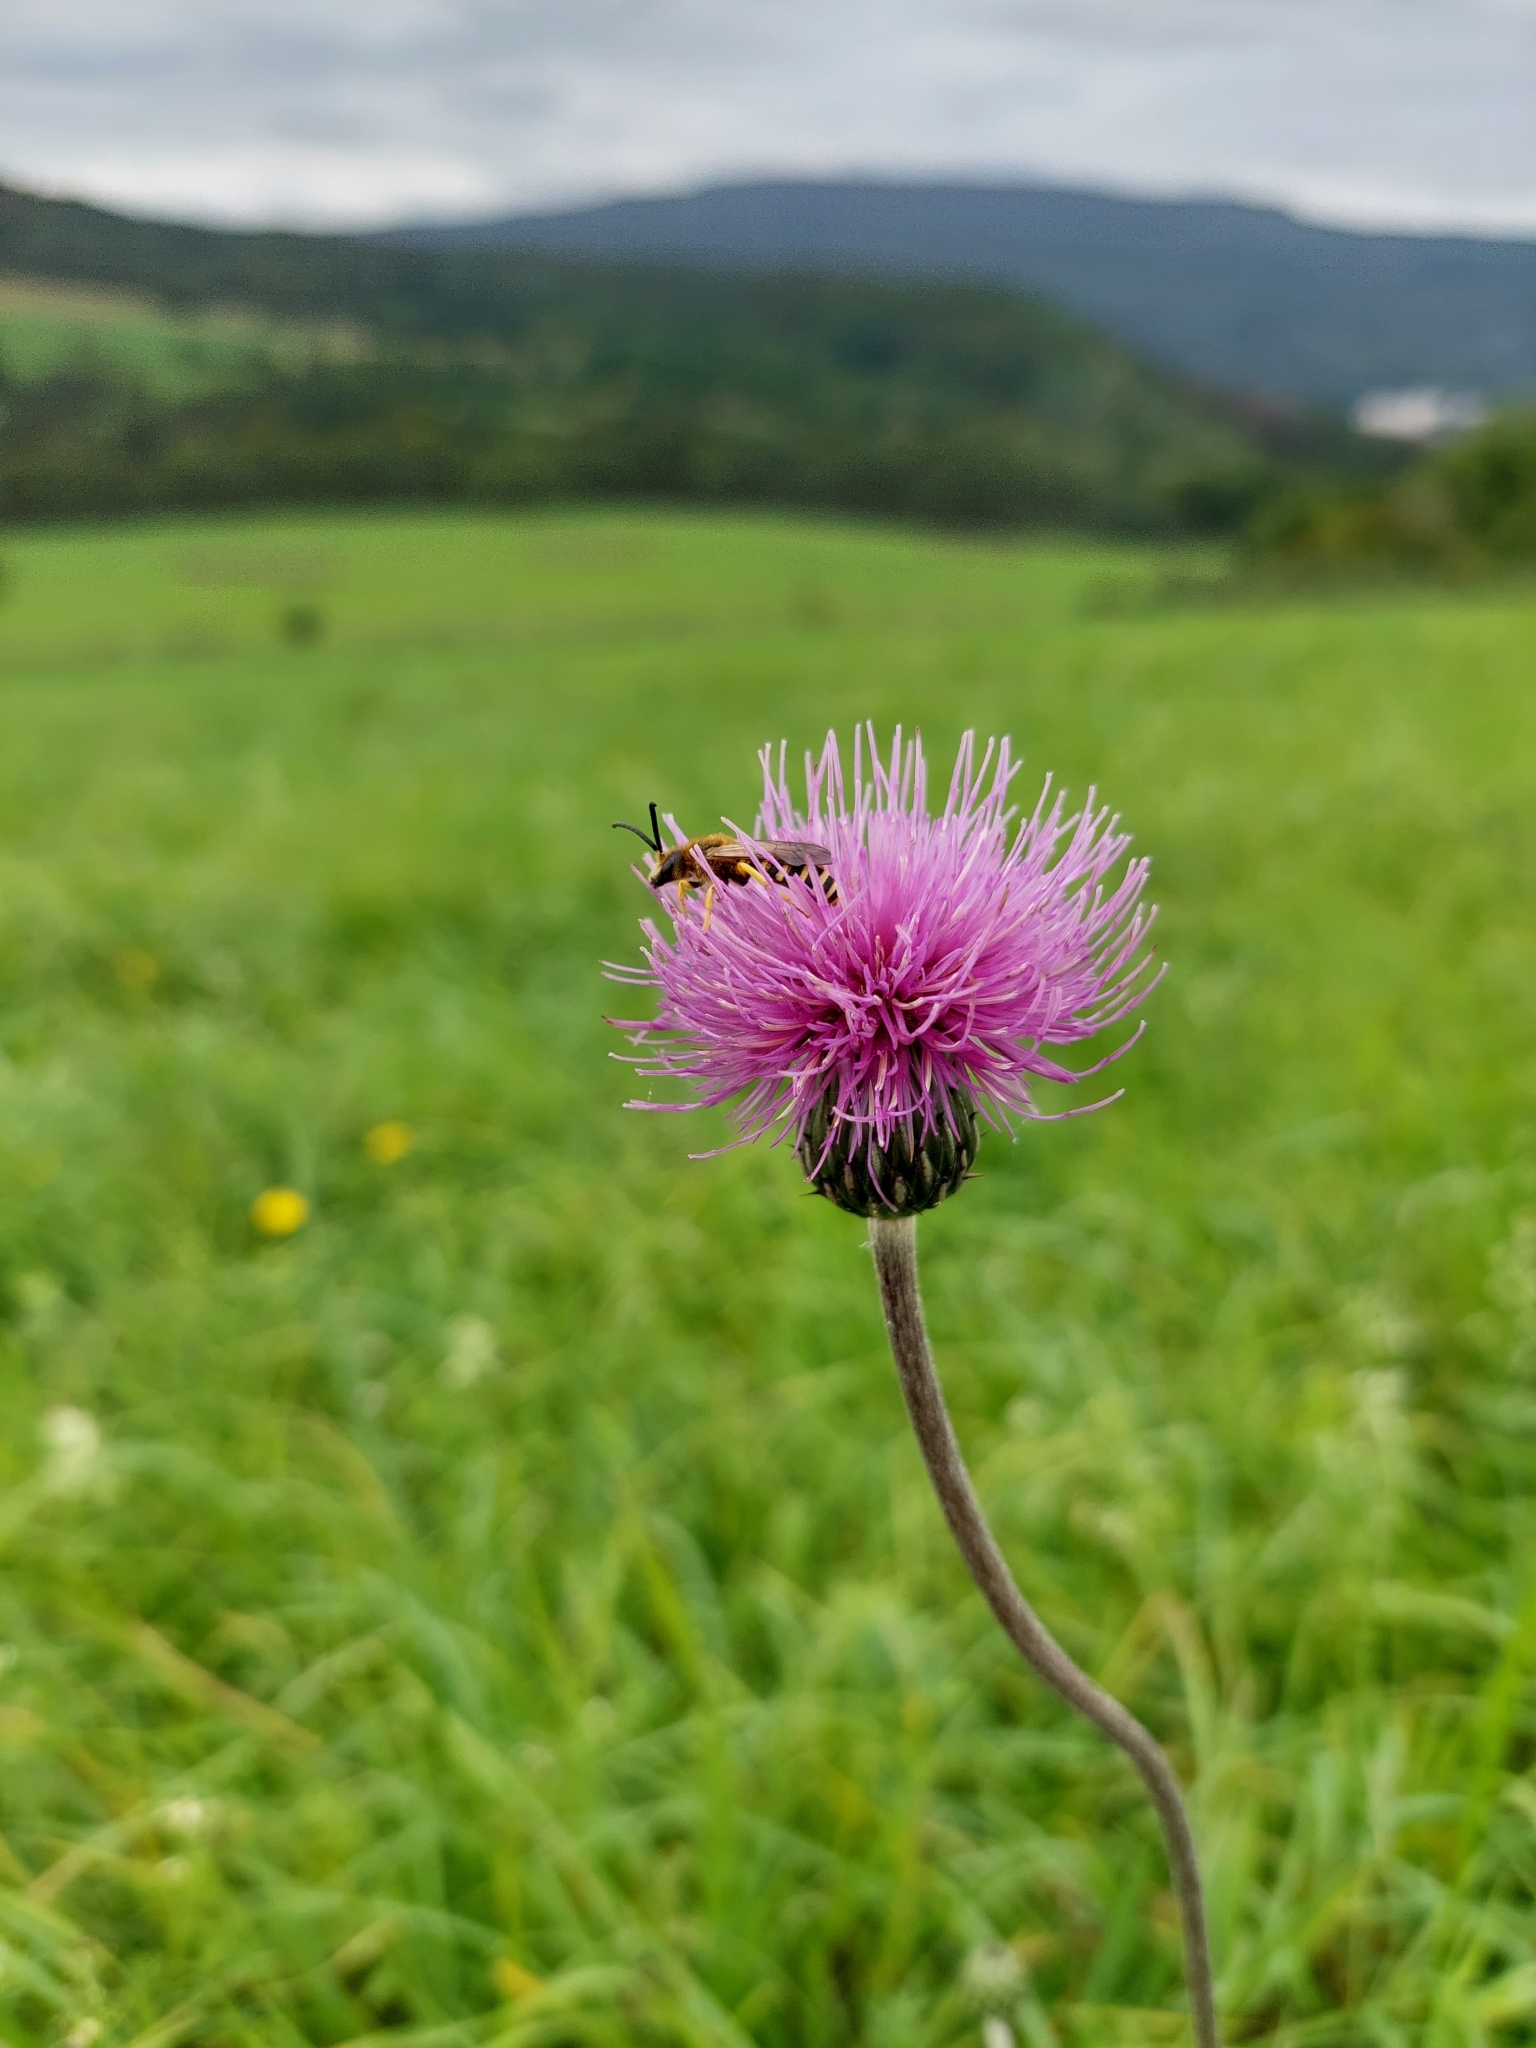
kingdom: Plantae
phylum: Tracheophyta
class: Magnoliopsida
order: Asterales
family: Asteraceae
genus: Cirsium
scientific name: Cirsium heterophyllum
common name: Melancholy thistle
